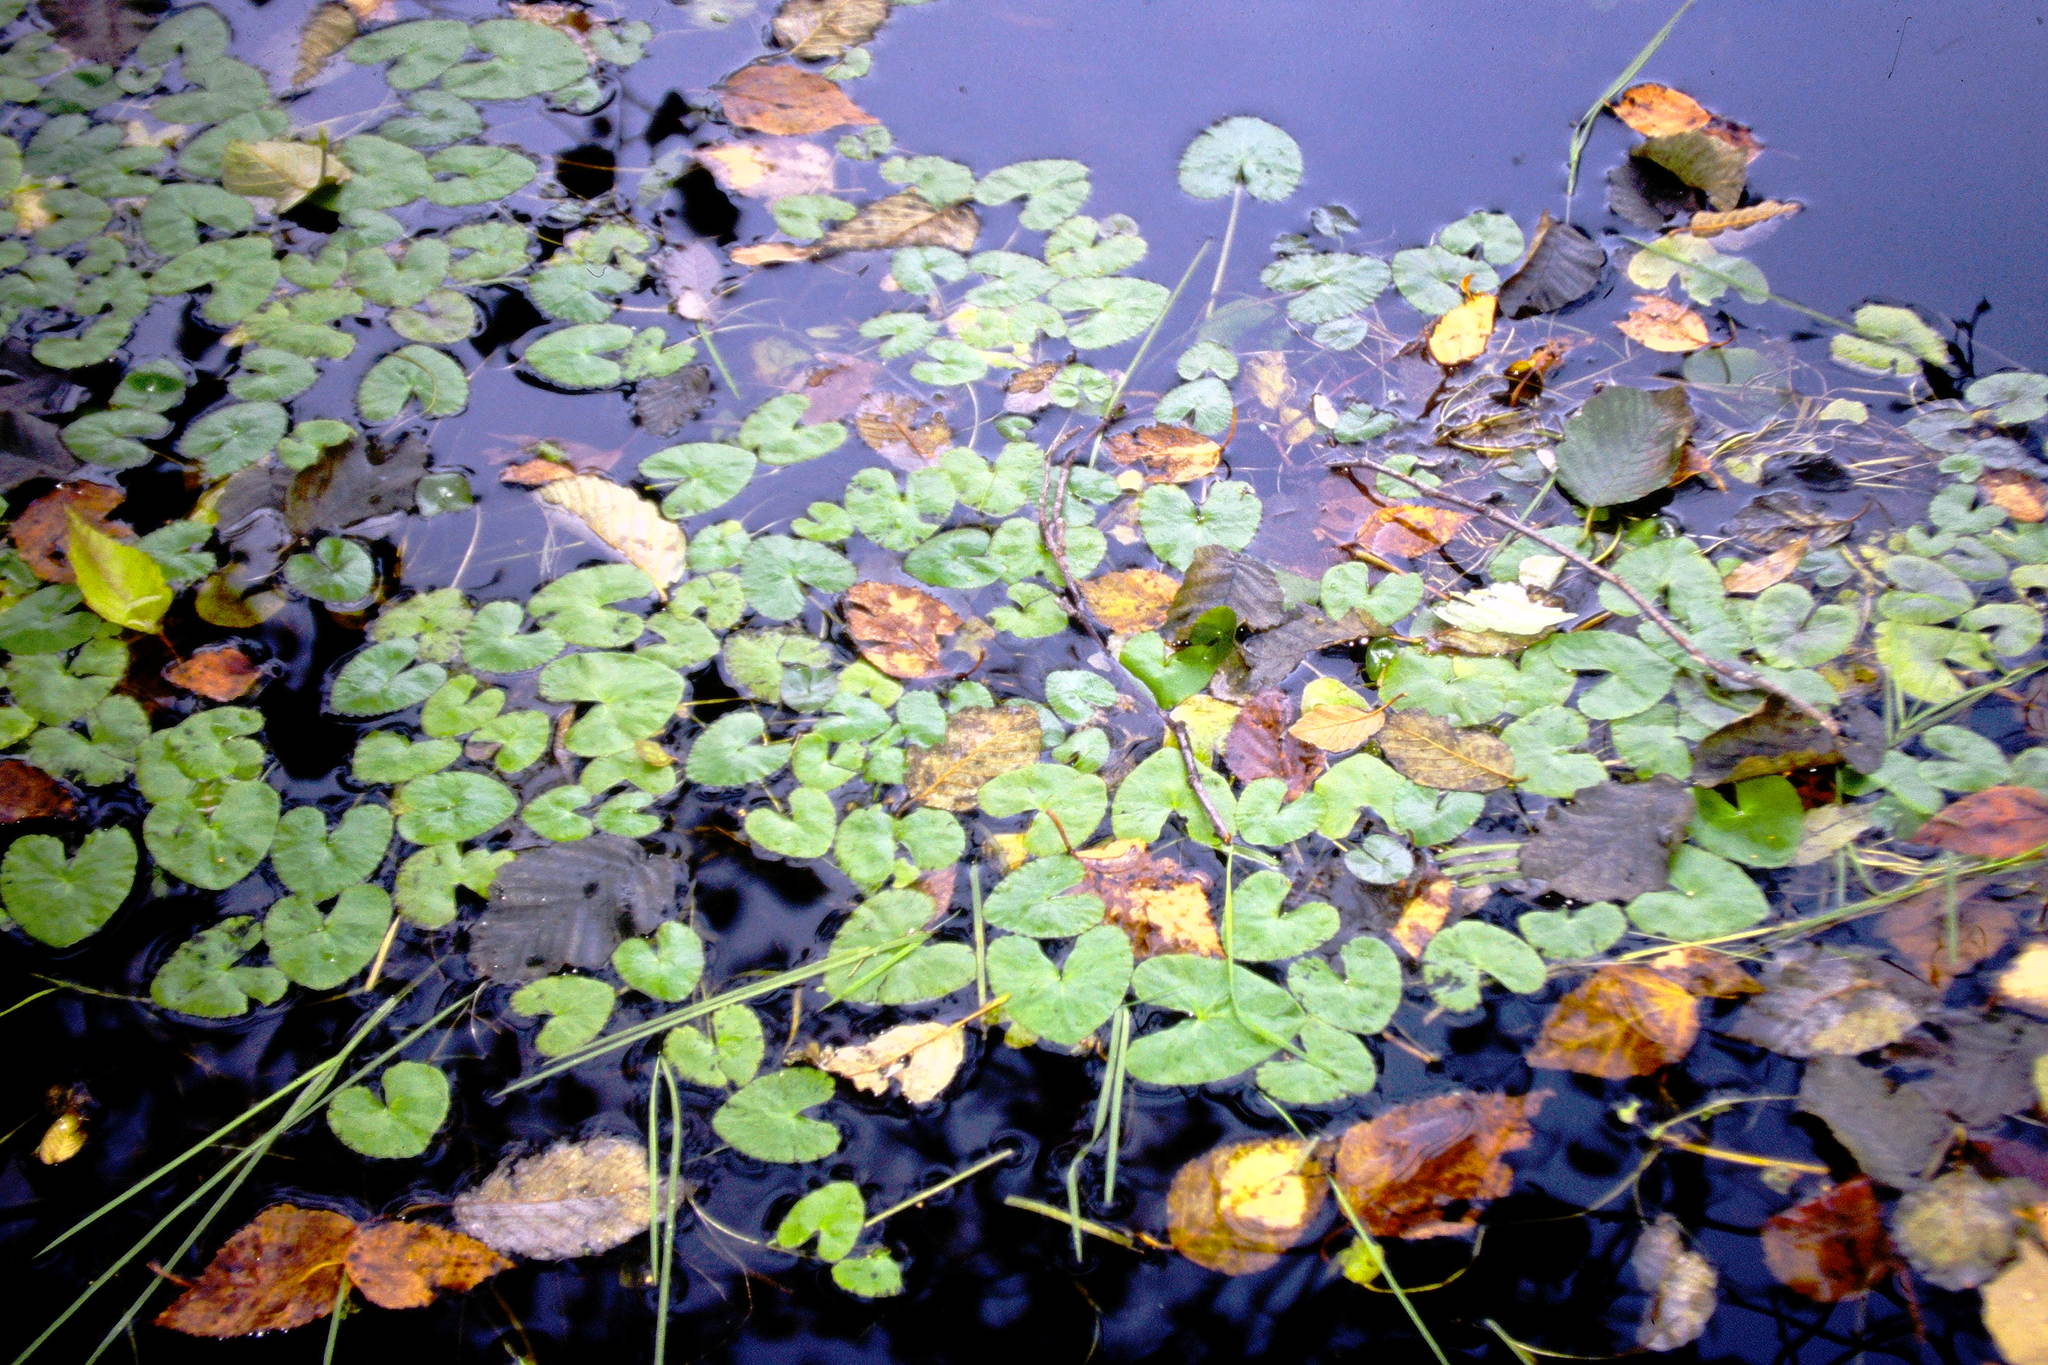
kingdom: Plantae
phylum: Tracheophyta
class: Magnoliopsida
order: Ranunculales
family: Ranunculaceae
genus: Caltha
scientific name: Caltha natans
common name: Floating marsh marigold
